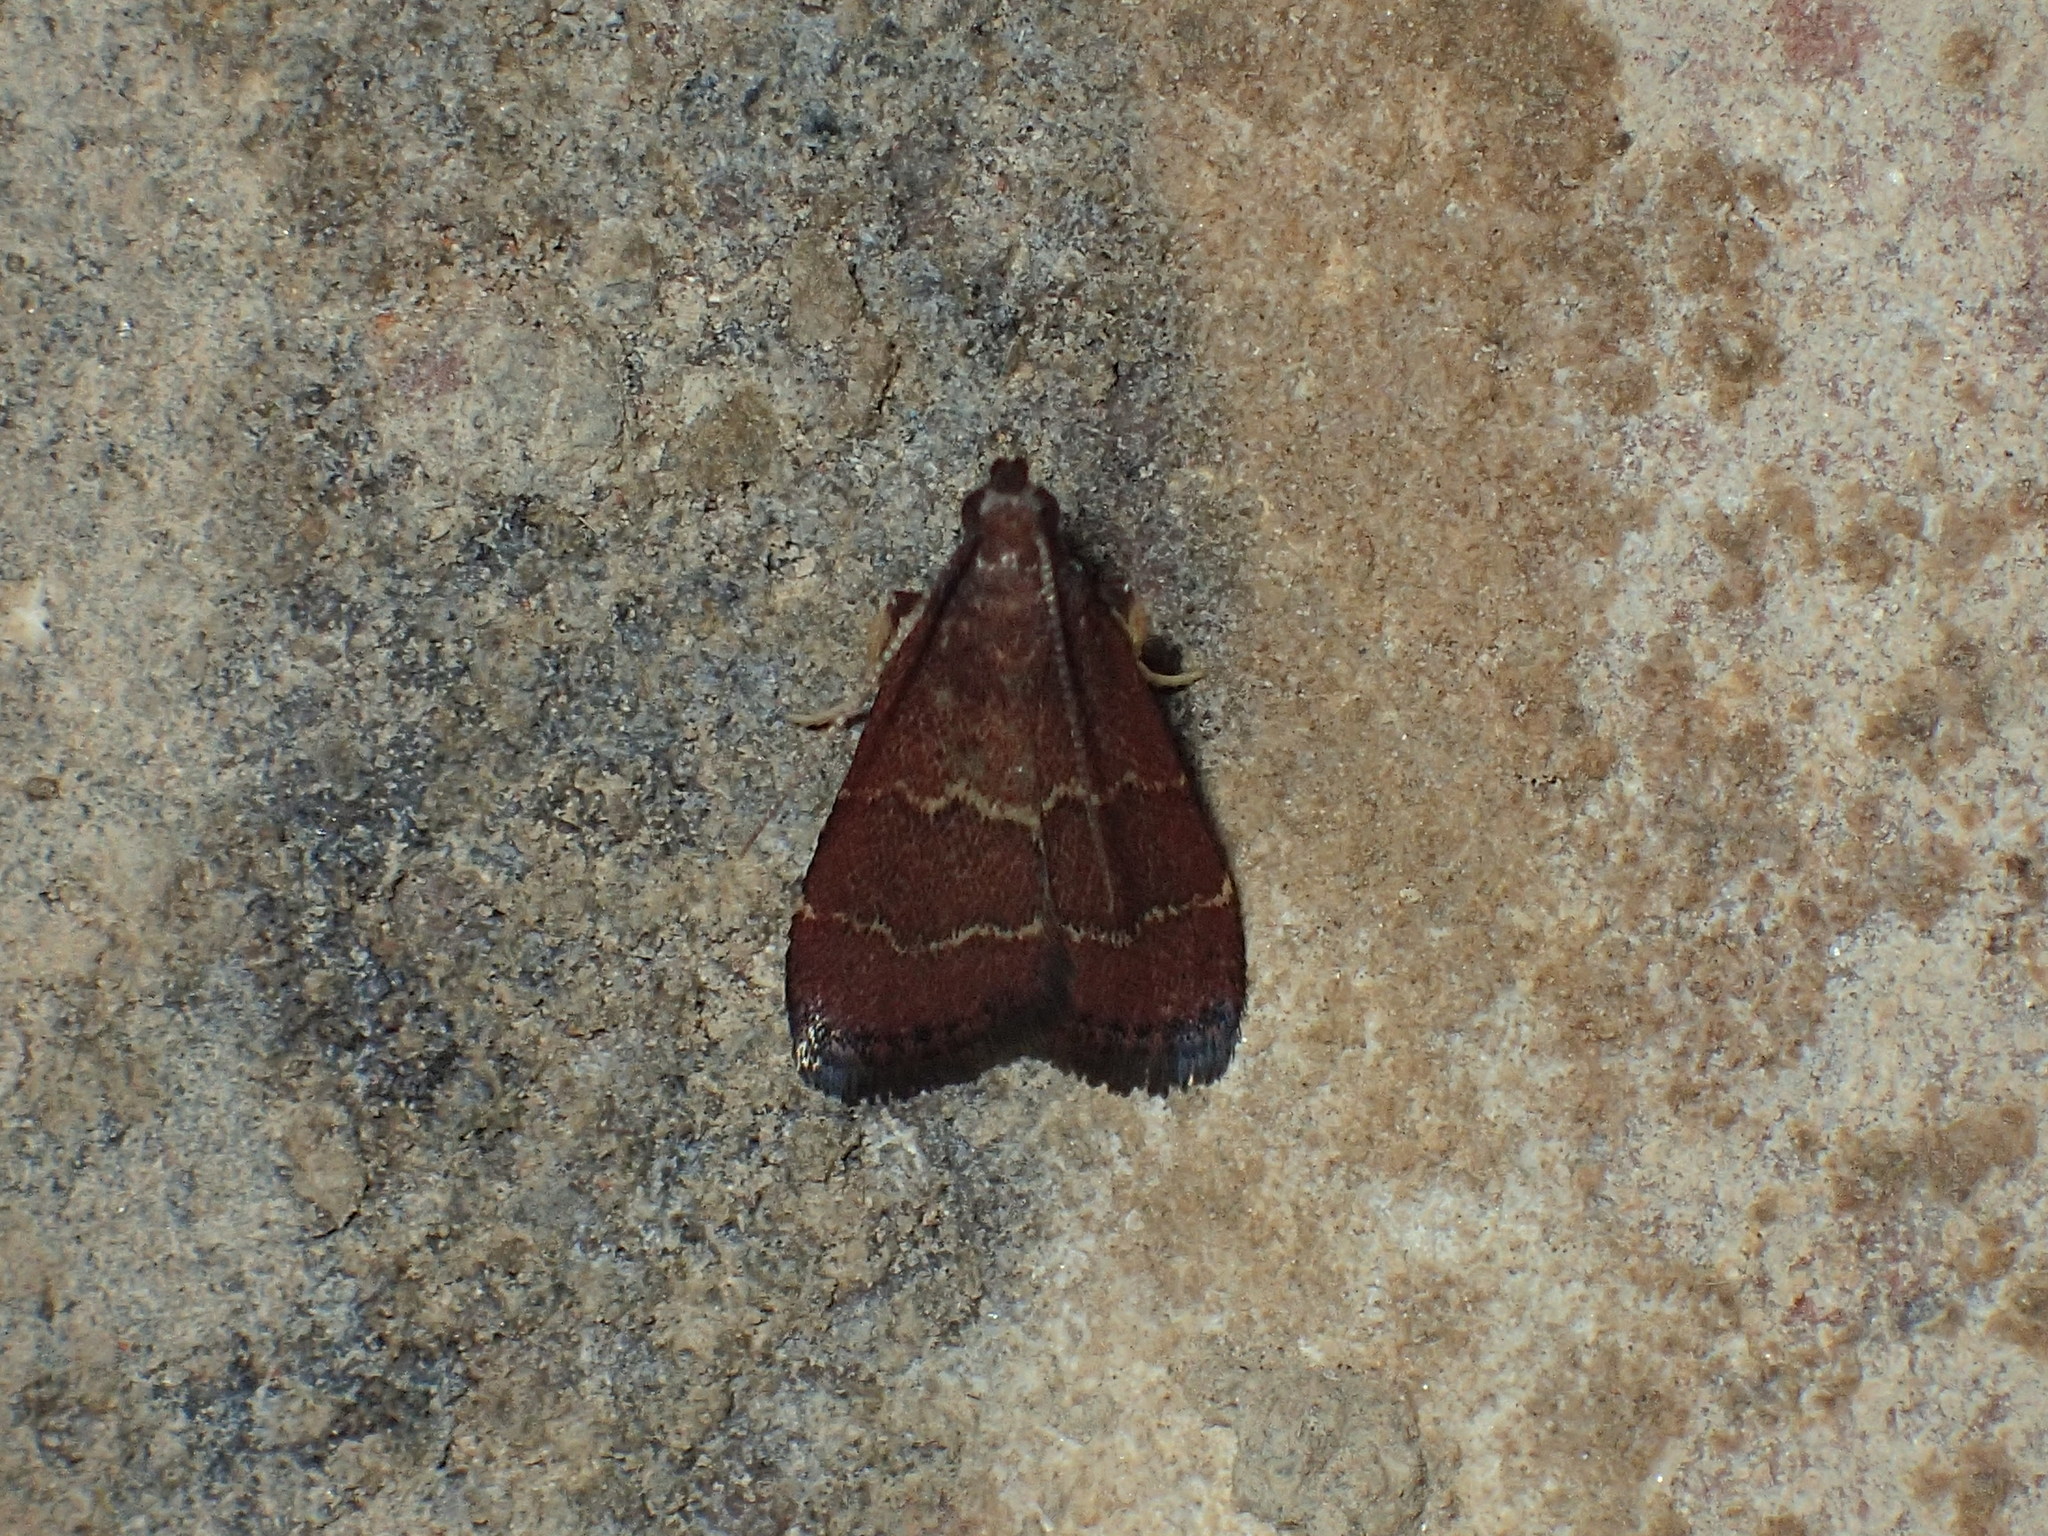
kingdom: Animalia
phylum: Arthropoda
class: Insecta
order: Lepidoptera
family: Pyralidae
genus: Arta
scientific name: Arta
